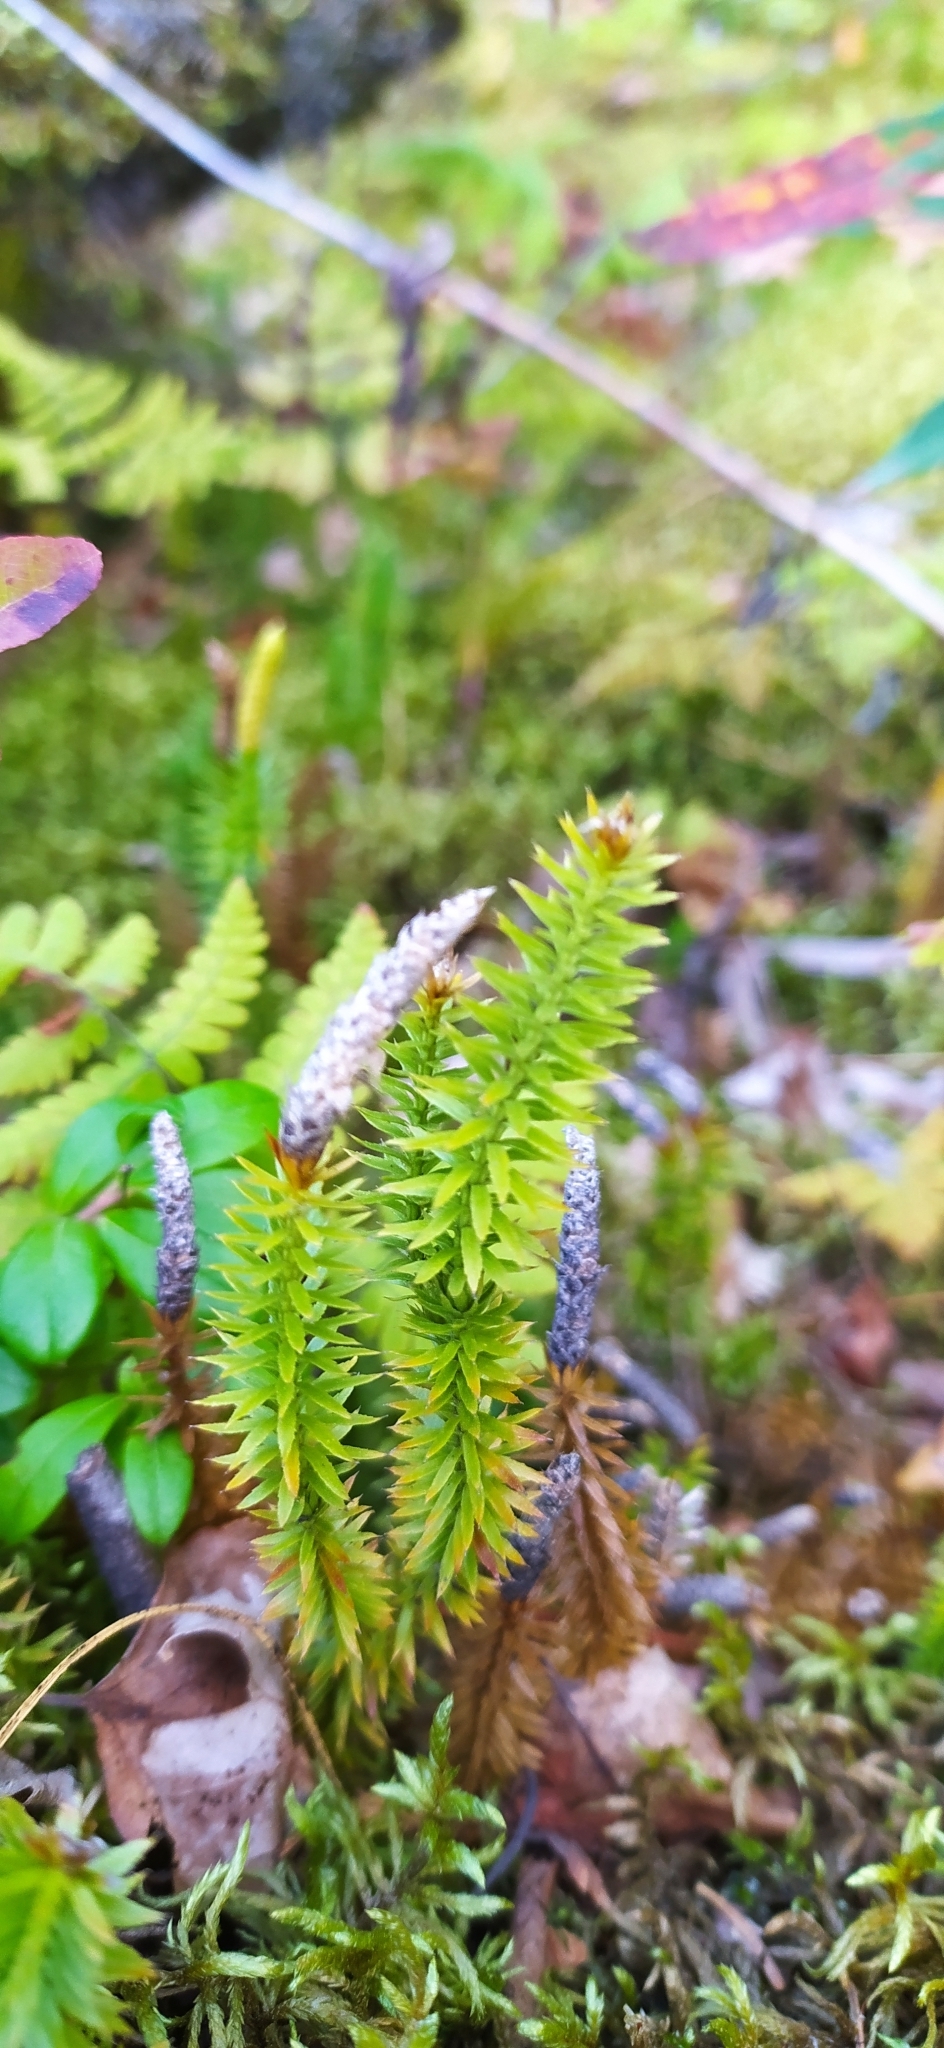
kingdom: Plantae
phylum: Tracheophyta
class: Lycopodiopsida
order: Lycopodiales
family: Lycopodiaceae
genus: Spinulum
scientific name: Spinulum annotinum
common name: Interrupted club-moss
